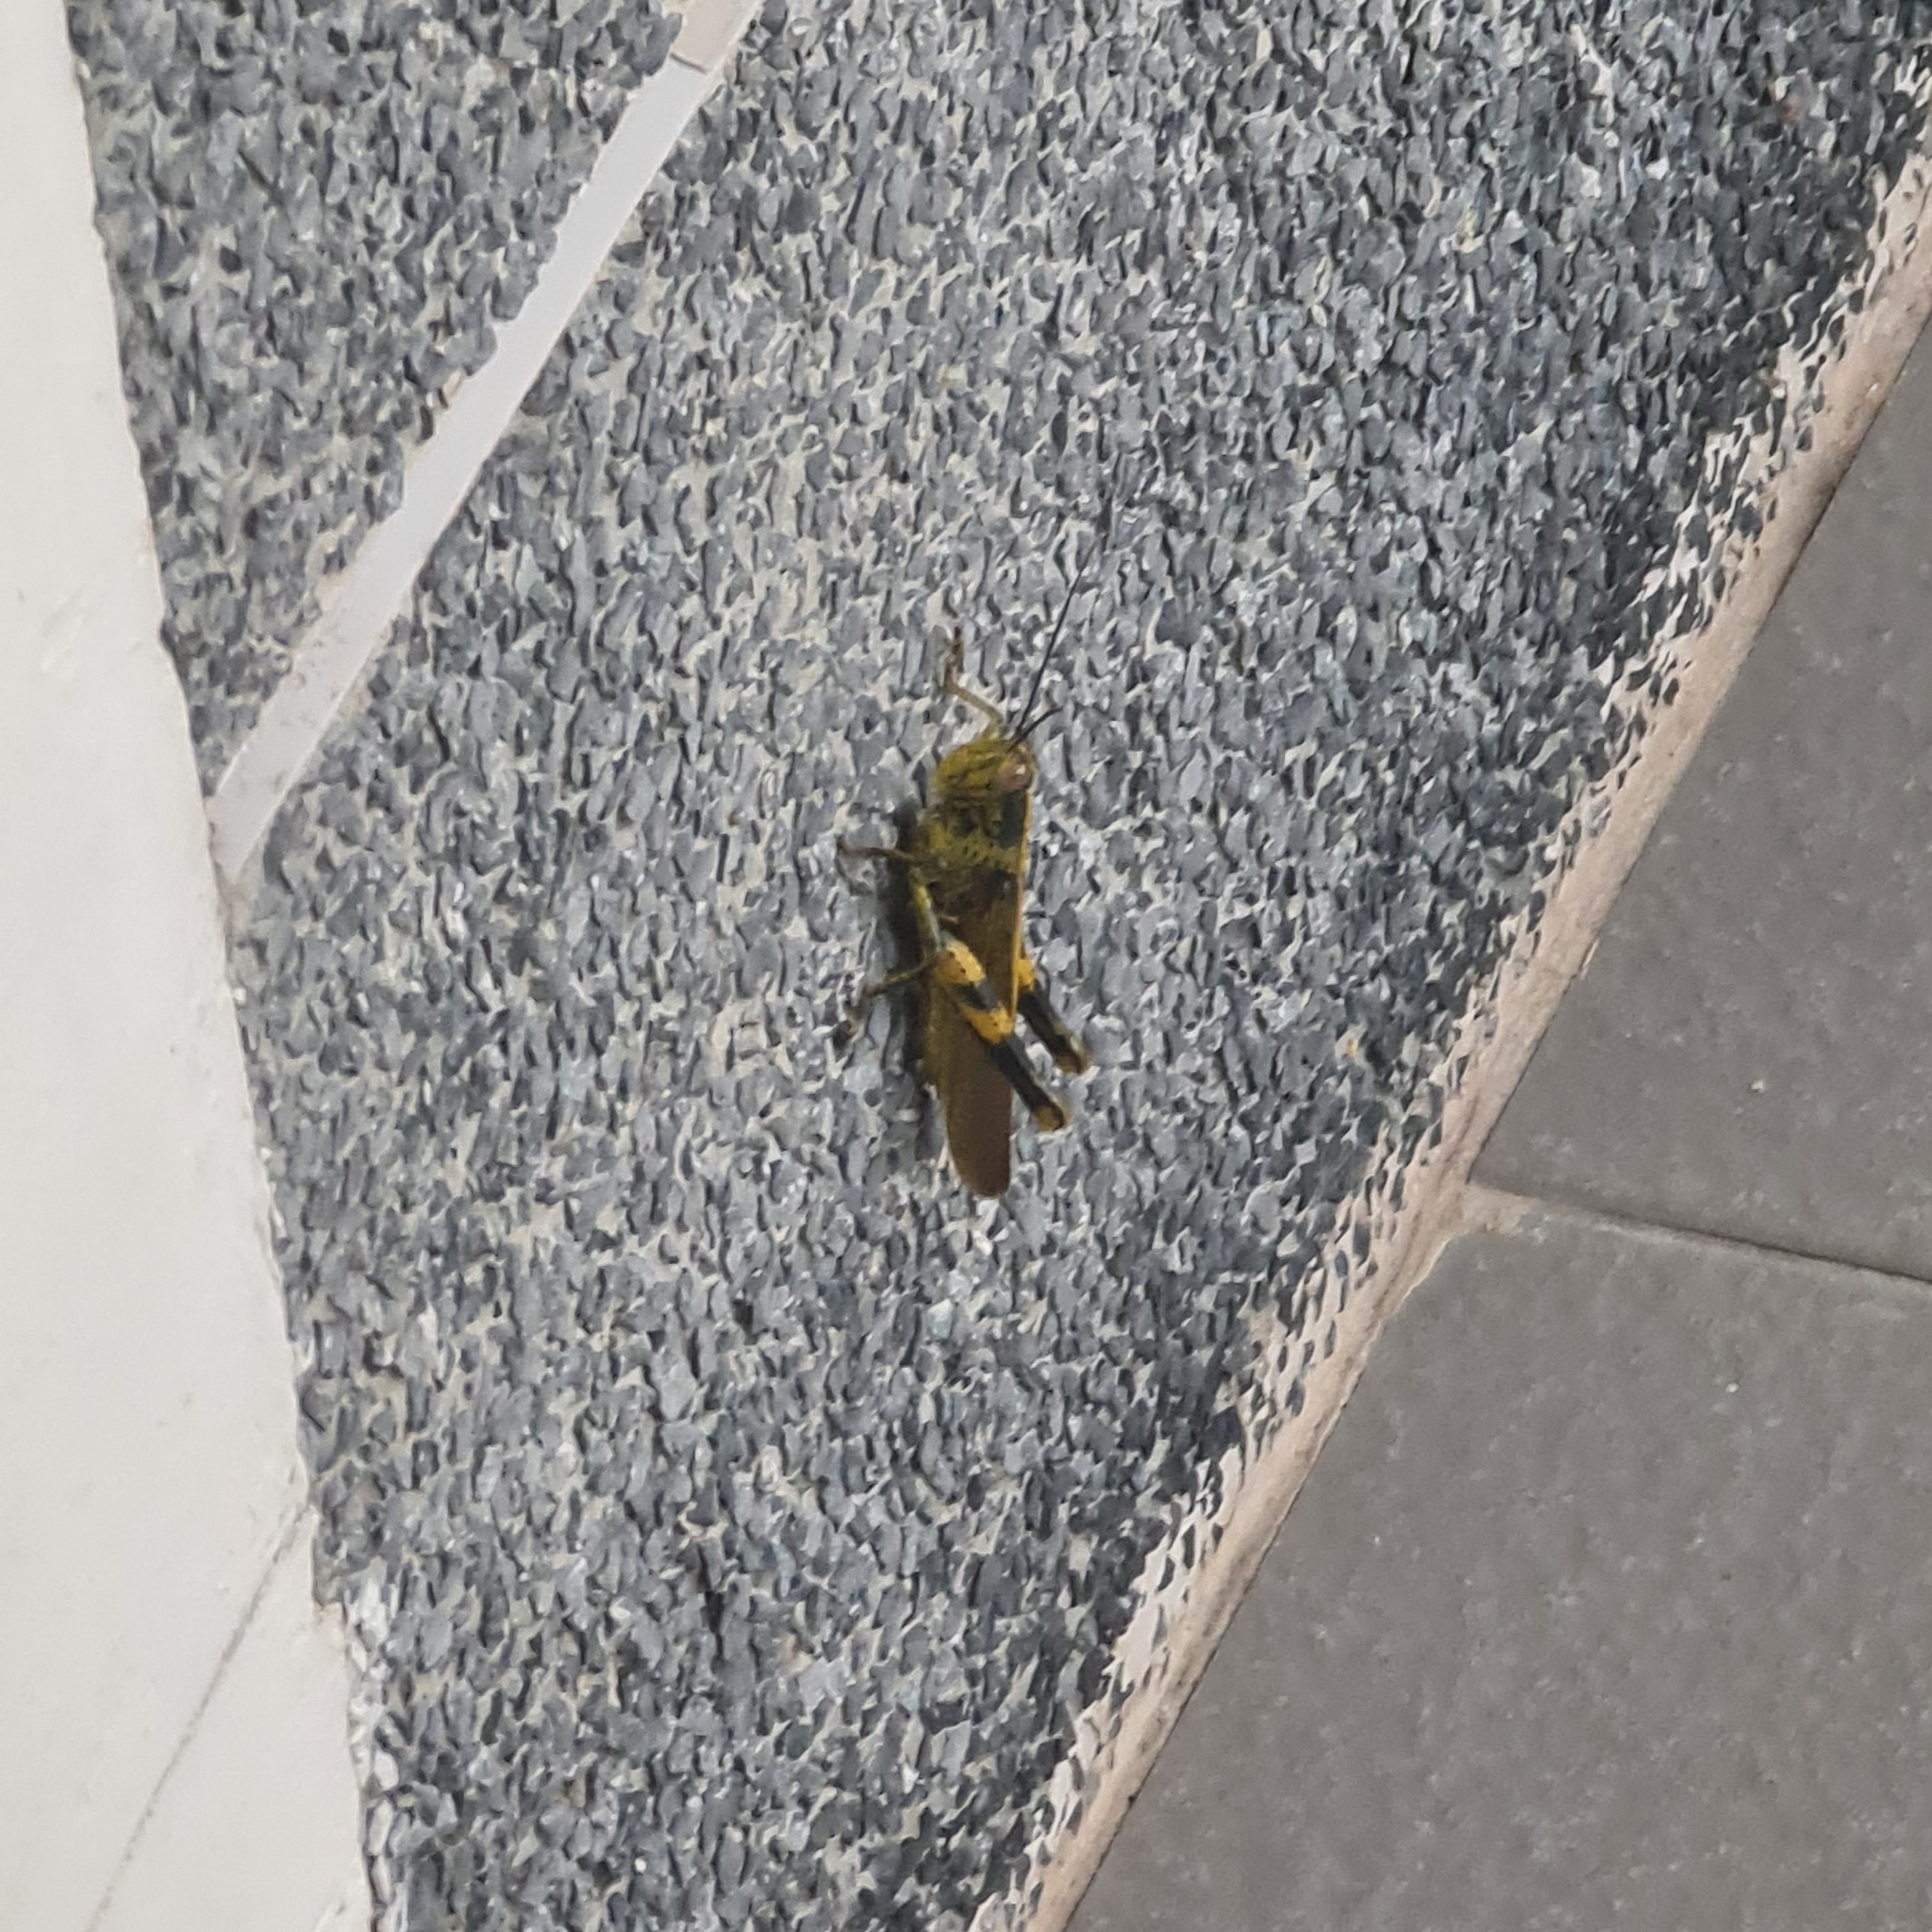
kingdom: Animalia
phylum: Arthropoda
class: Insecta
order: Orthoptera
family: Acrididae
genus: Valanga
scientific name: Valanga nigricornis
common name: Javanese bird grasshopper
